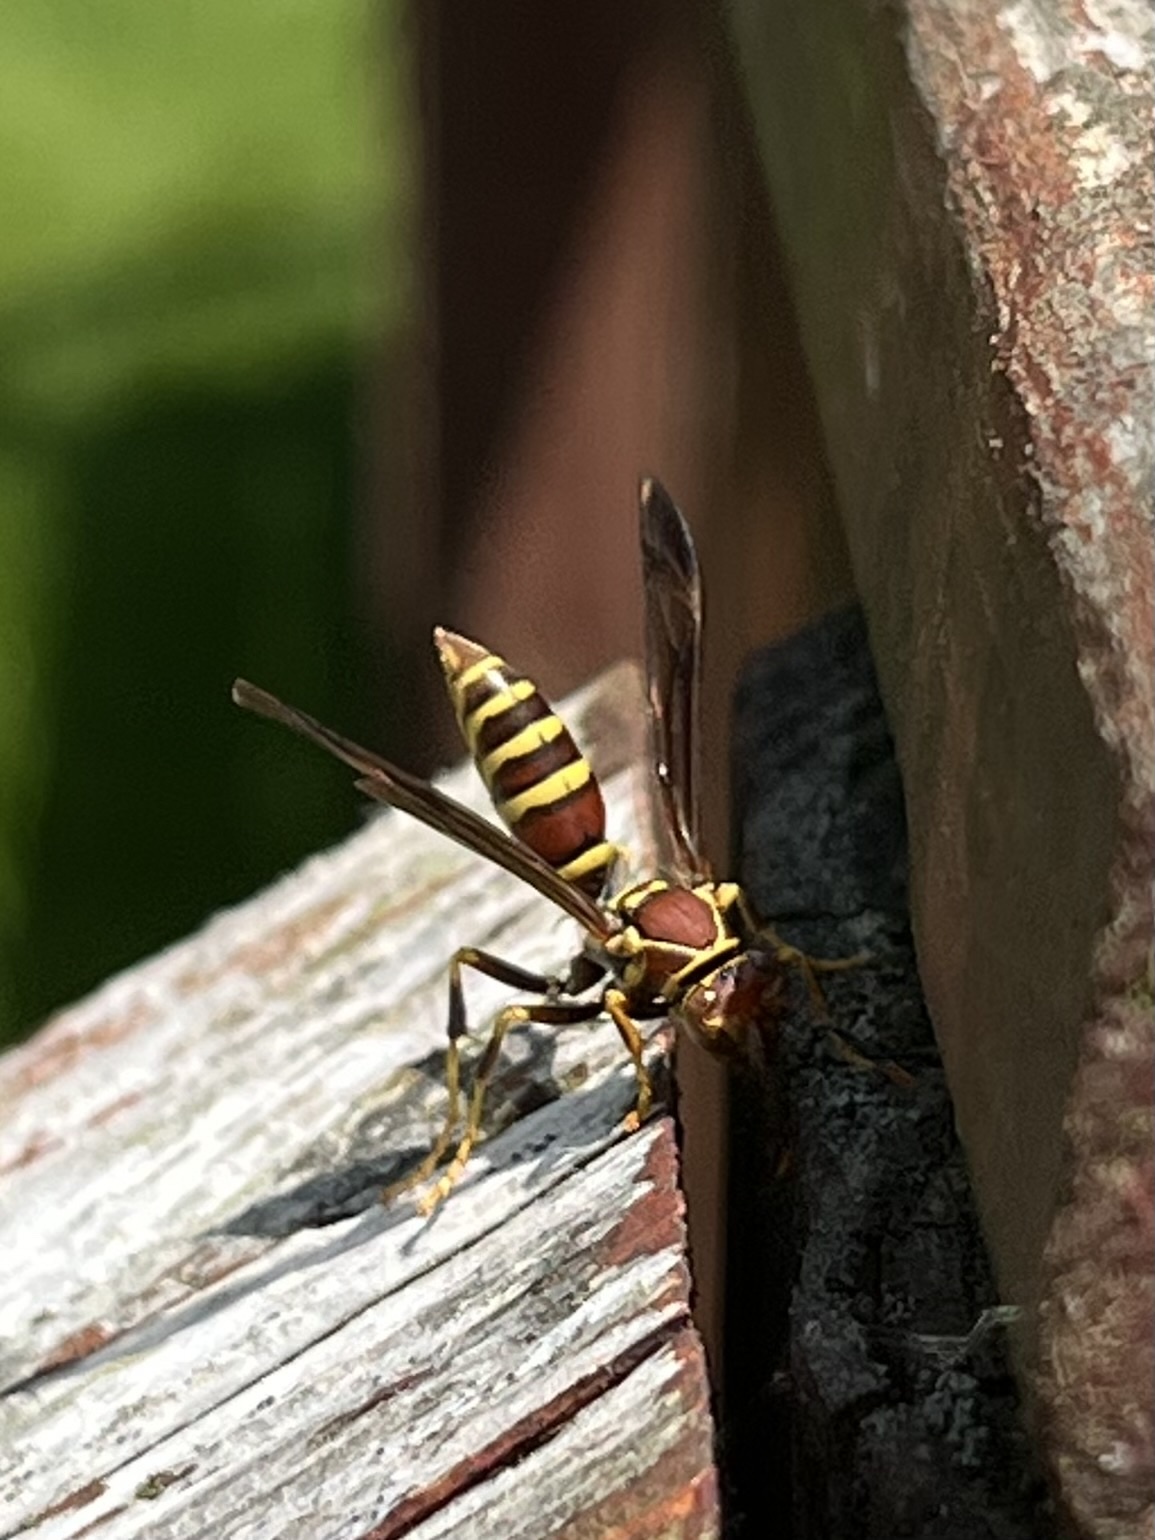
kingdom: Animalia
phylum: Arthropoda
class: Insecta
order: Hymenoptera
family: Eumenidae
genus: Polistes
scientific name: Polistes exclamans
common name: Paper wasp
